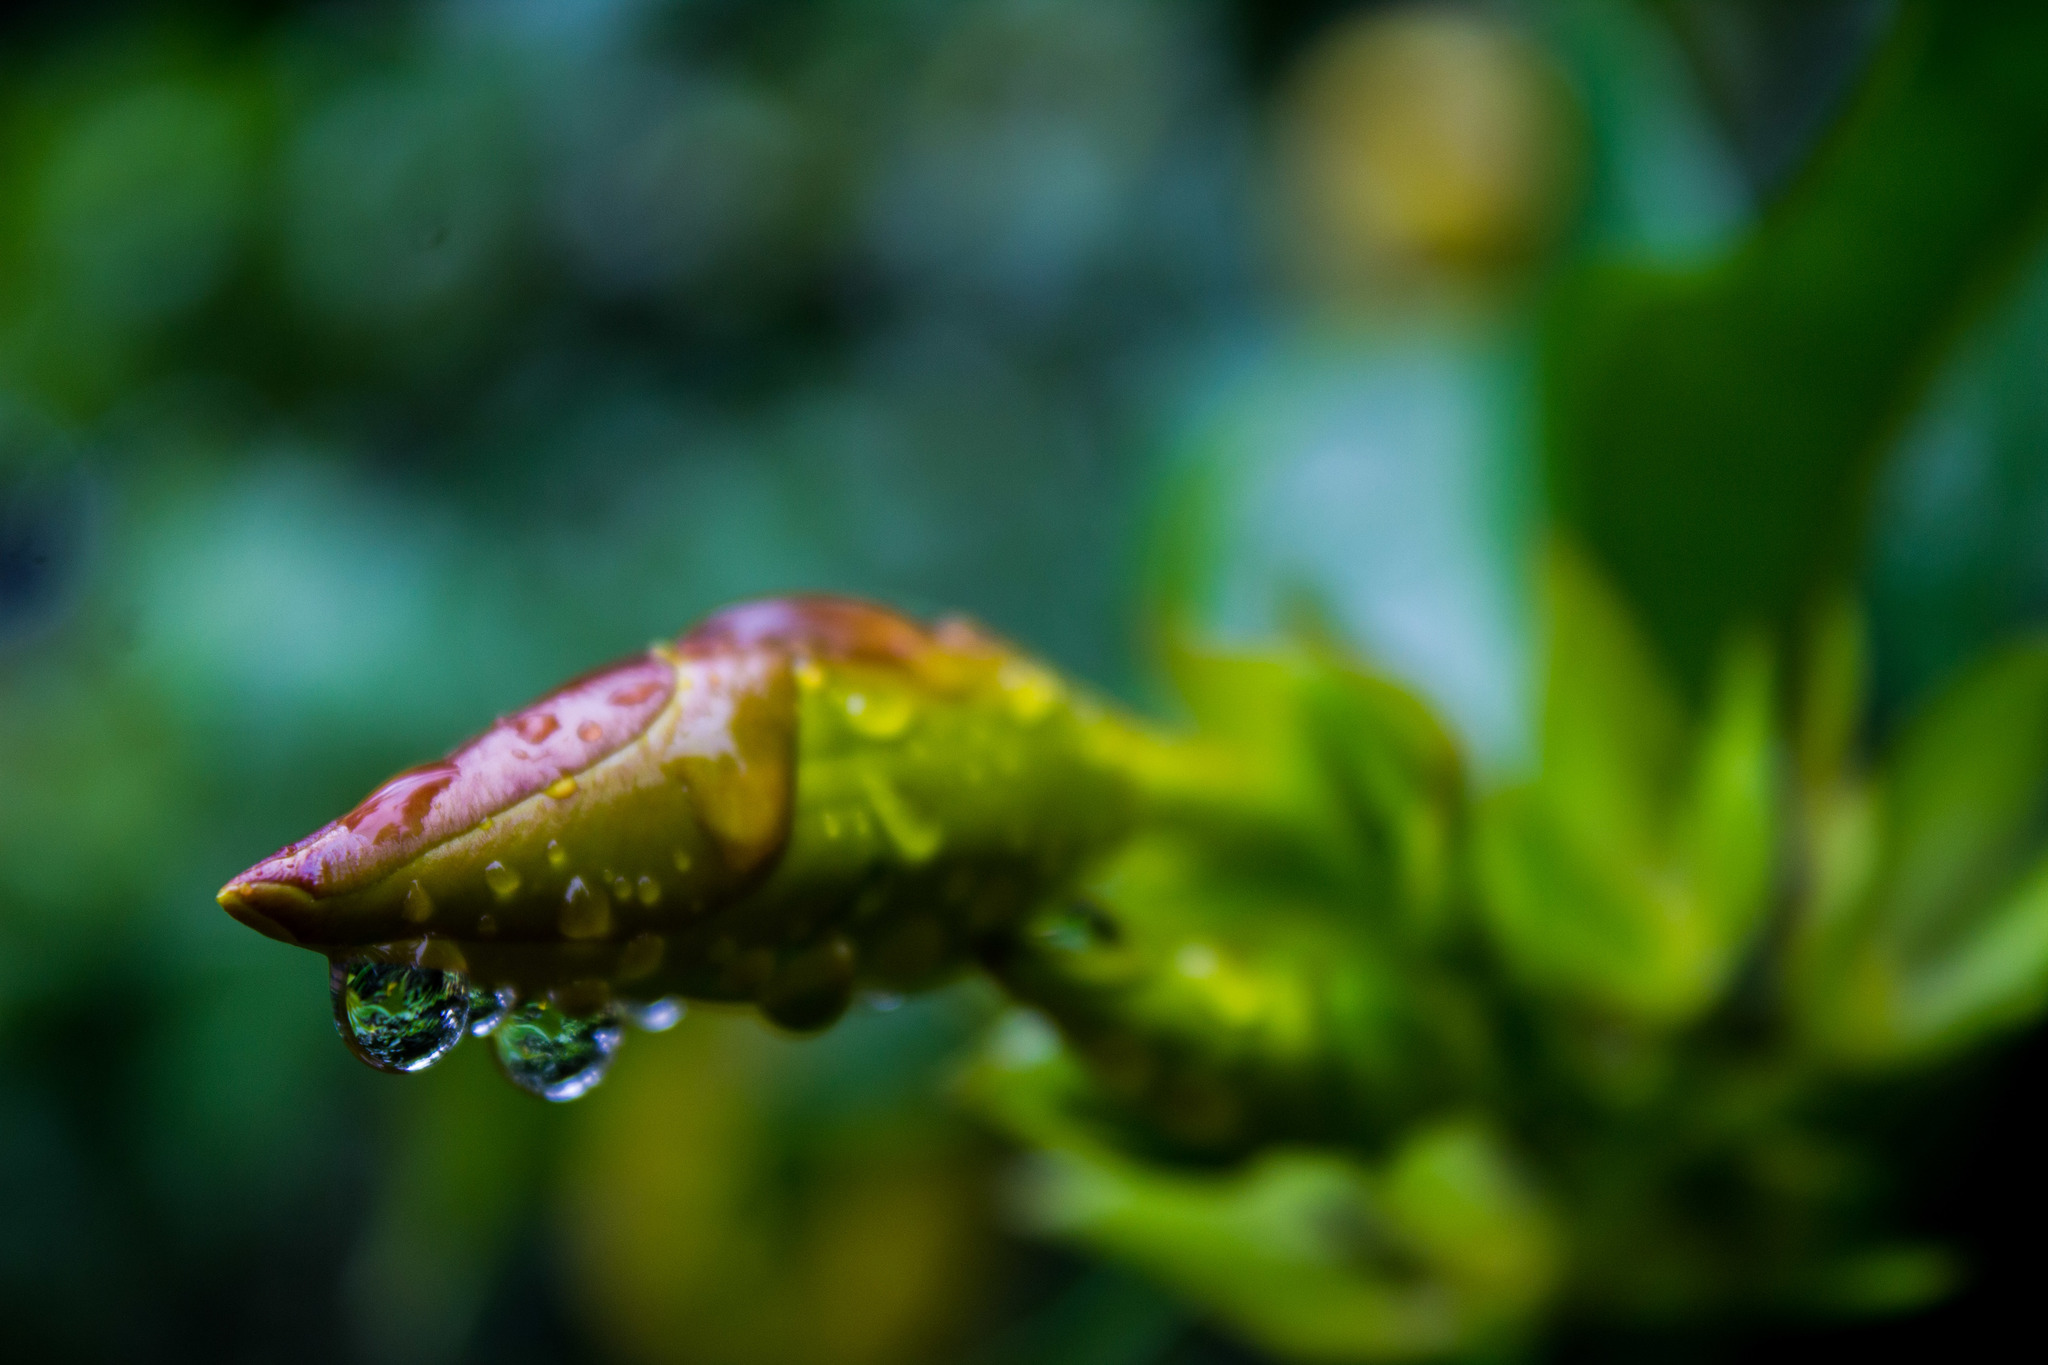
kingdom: Plantae
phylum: Tracheophyta
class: Magnoliopsida
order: Gentianales
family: Apocynaceae
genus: Allamanda
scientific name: Allamanda cathartica
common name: Golden trumpet
